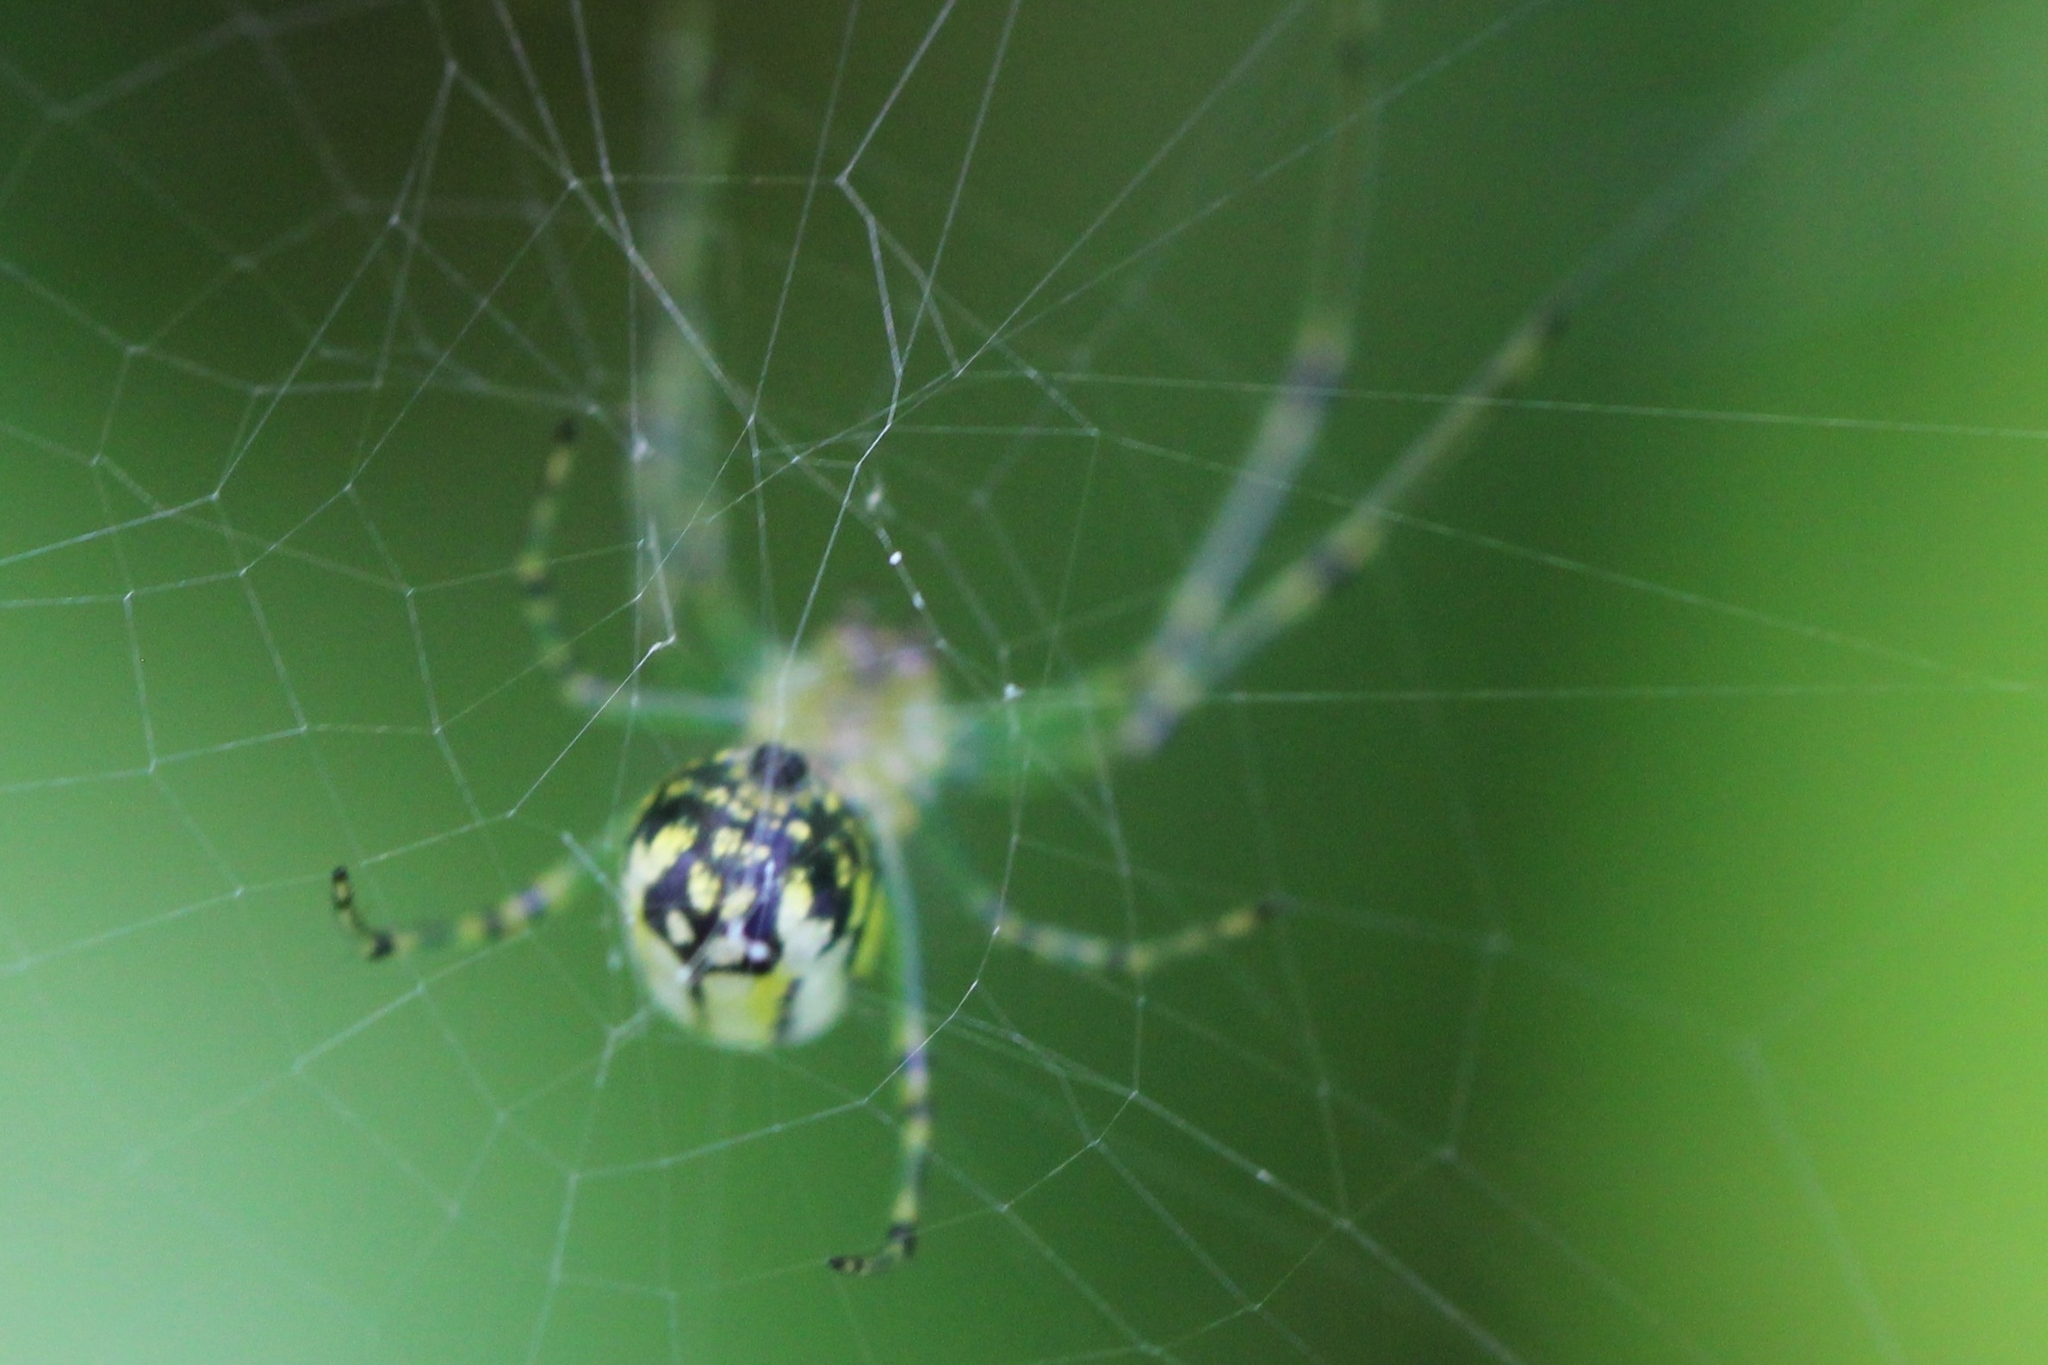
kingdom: Animalia
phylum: Arthropoda
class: Arachnida
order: Araneae
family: Tetragnathidae
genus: Leucauge
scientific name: Leucauge venusta
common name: Longjawed orb weavers
